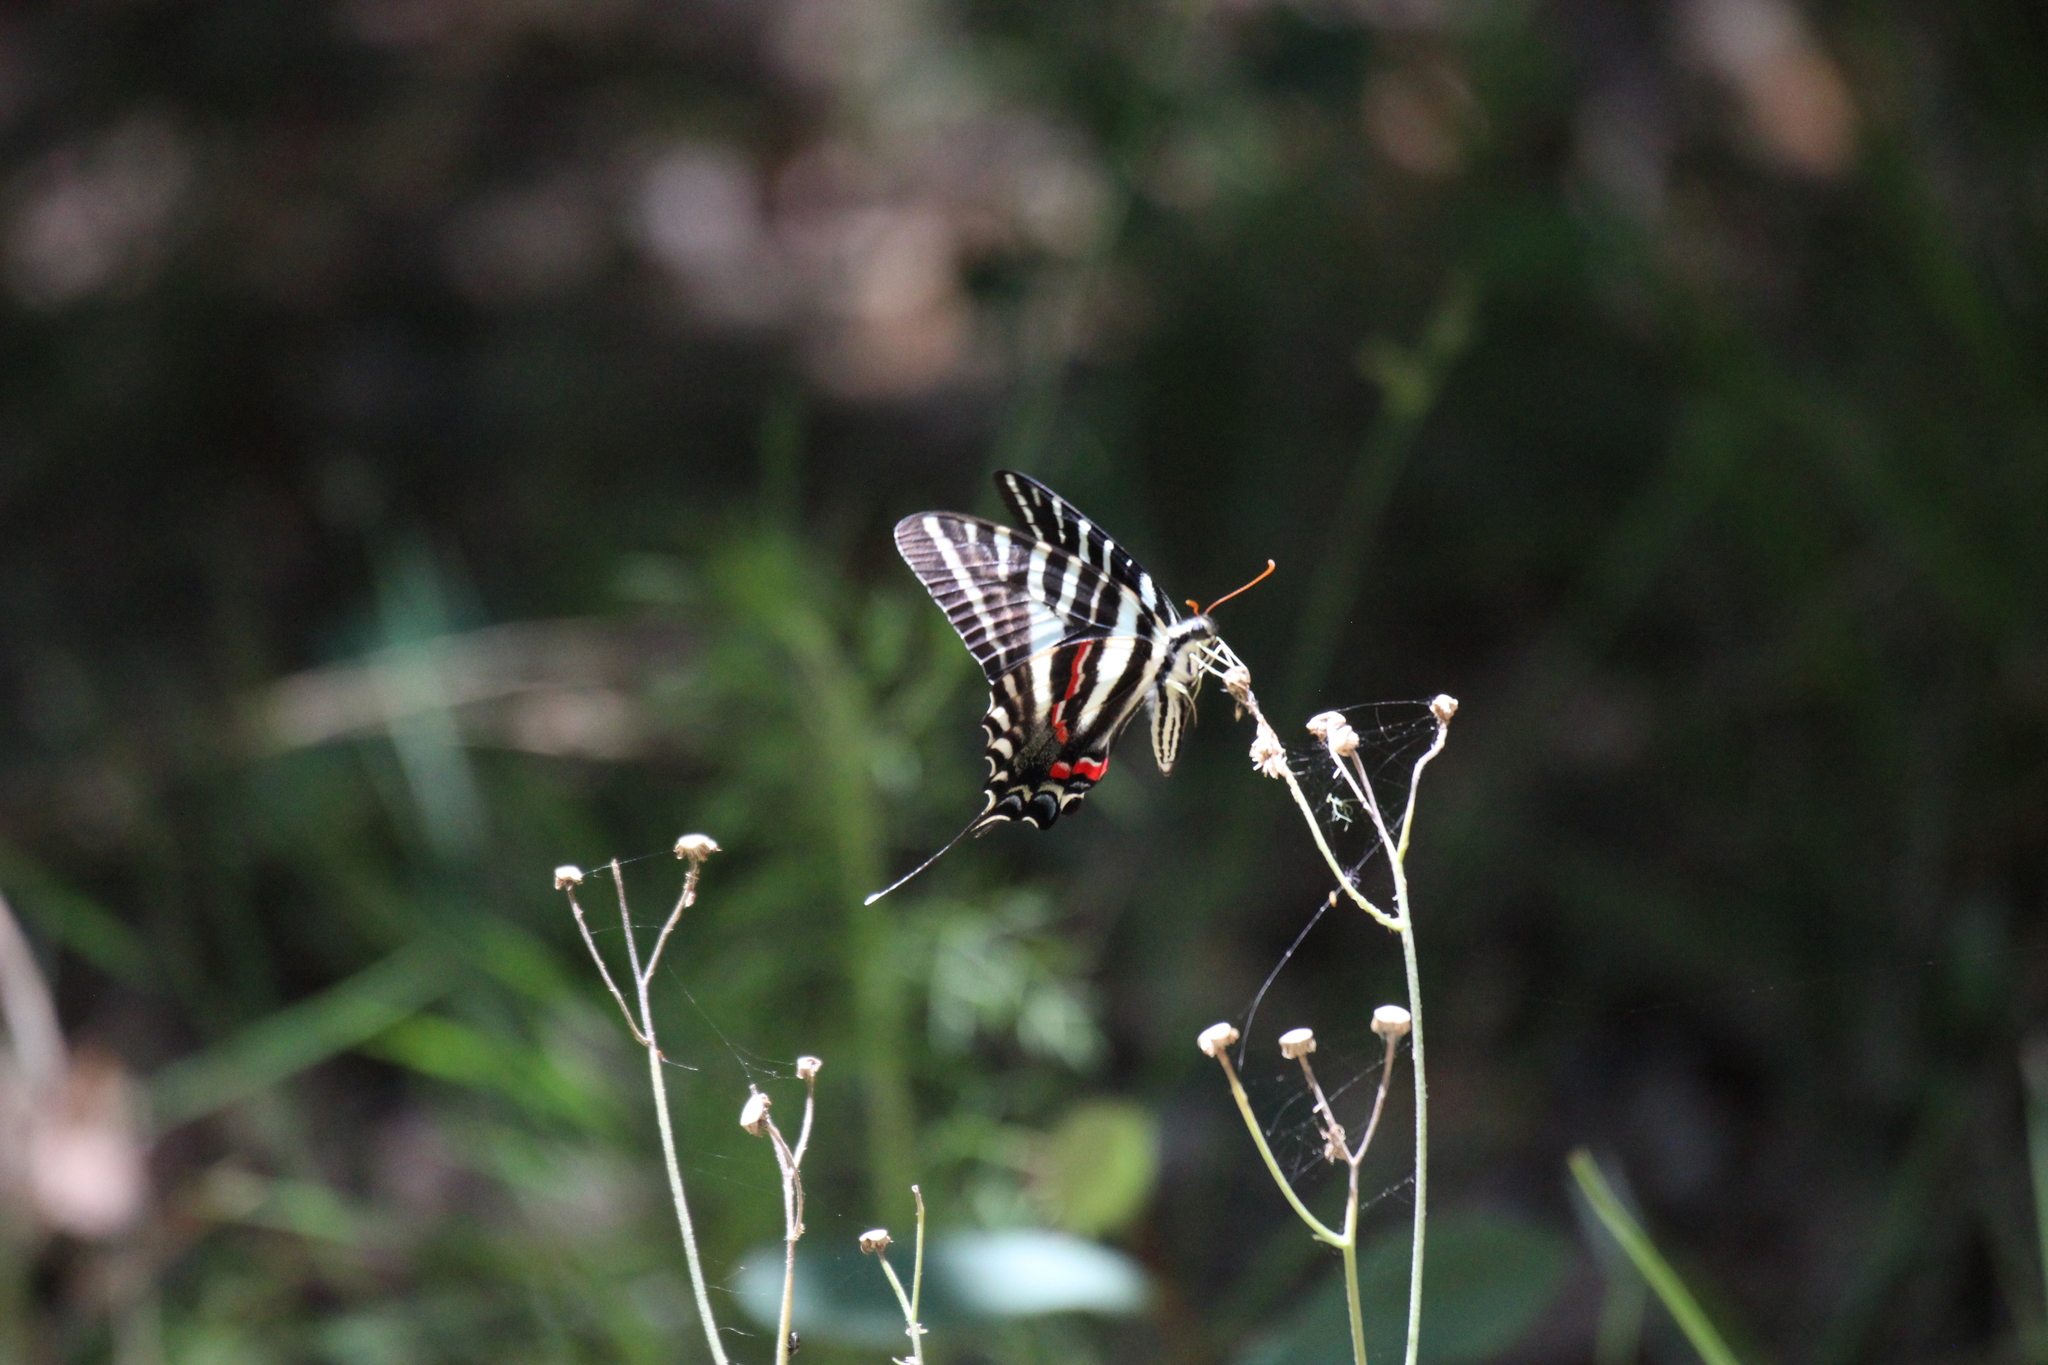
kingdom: Animalia
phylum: Arthropoda
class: Insecta
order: Lepidoptera
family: Papilionidae
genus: Protographium
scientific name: Protographium marcellus
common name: Zebra swallowtail
